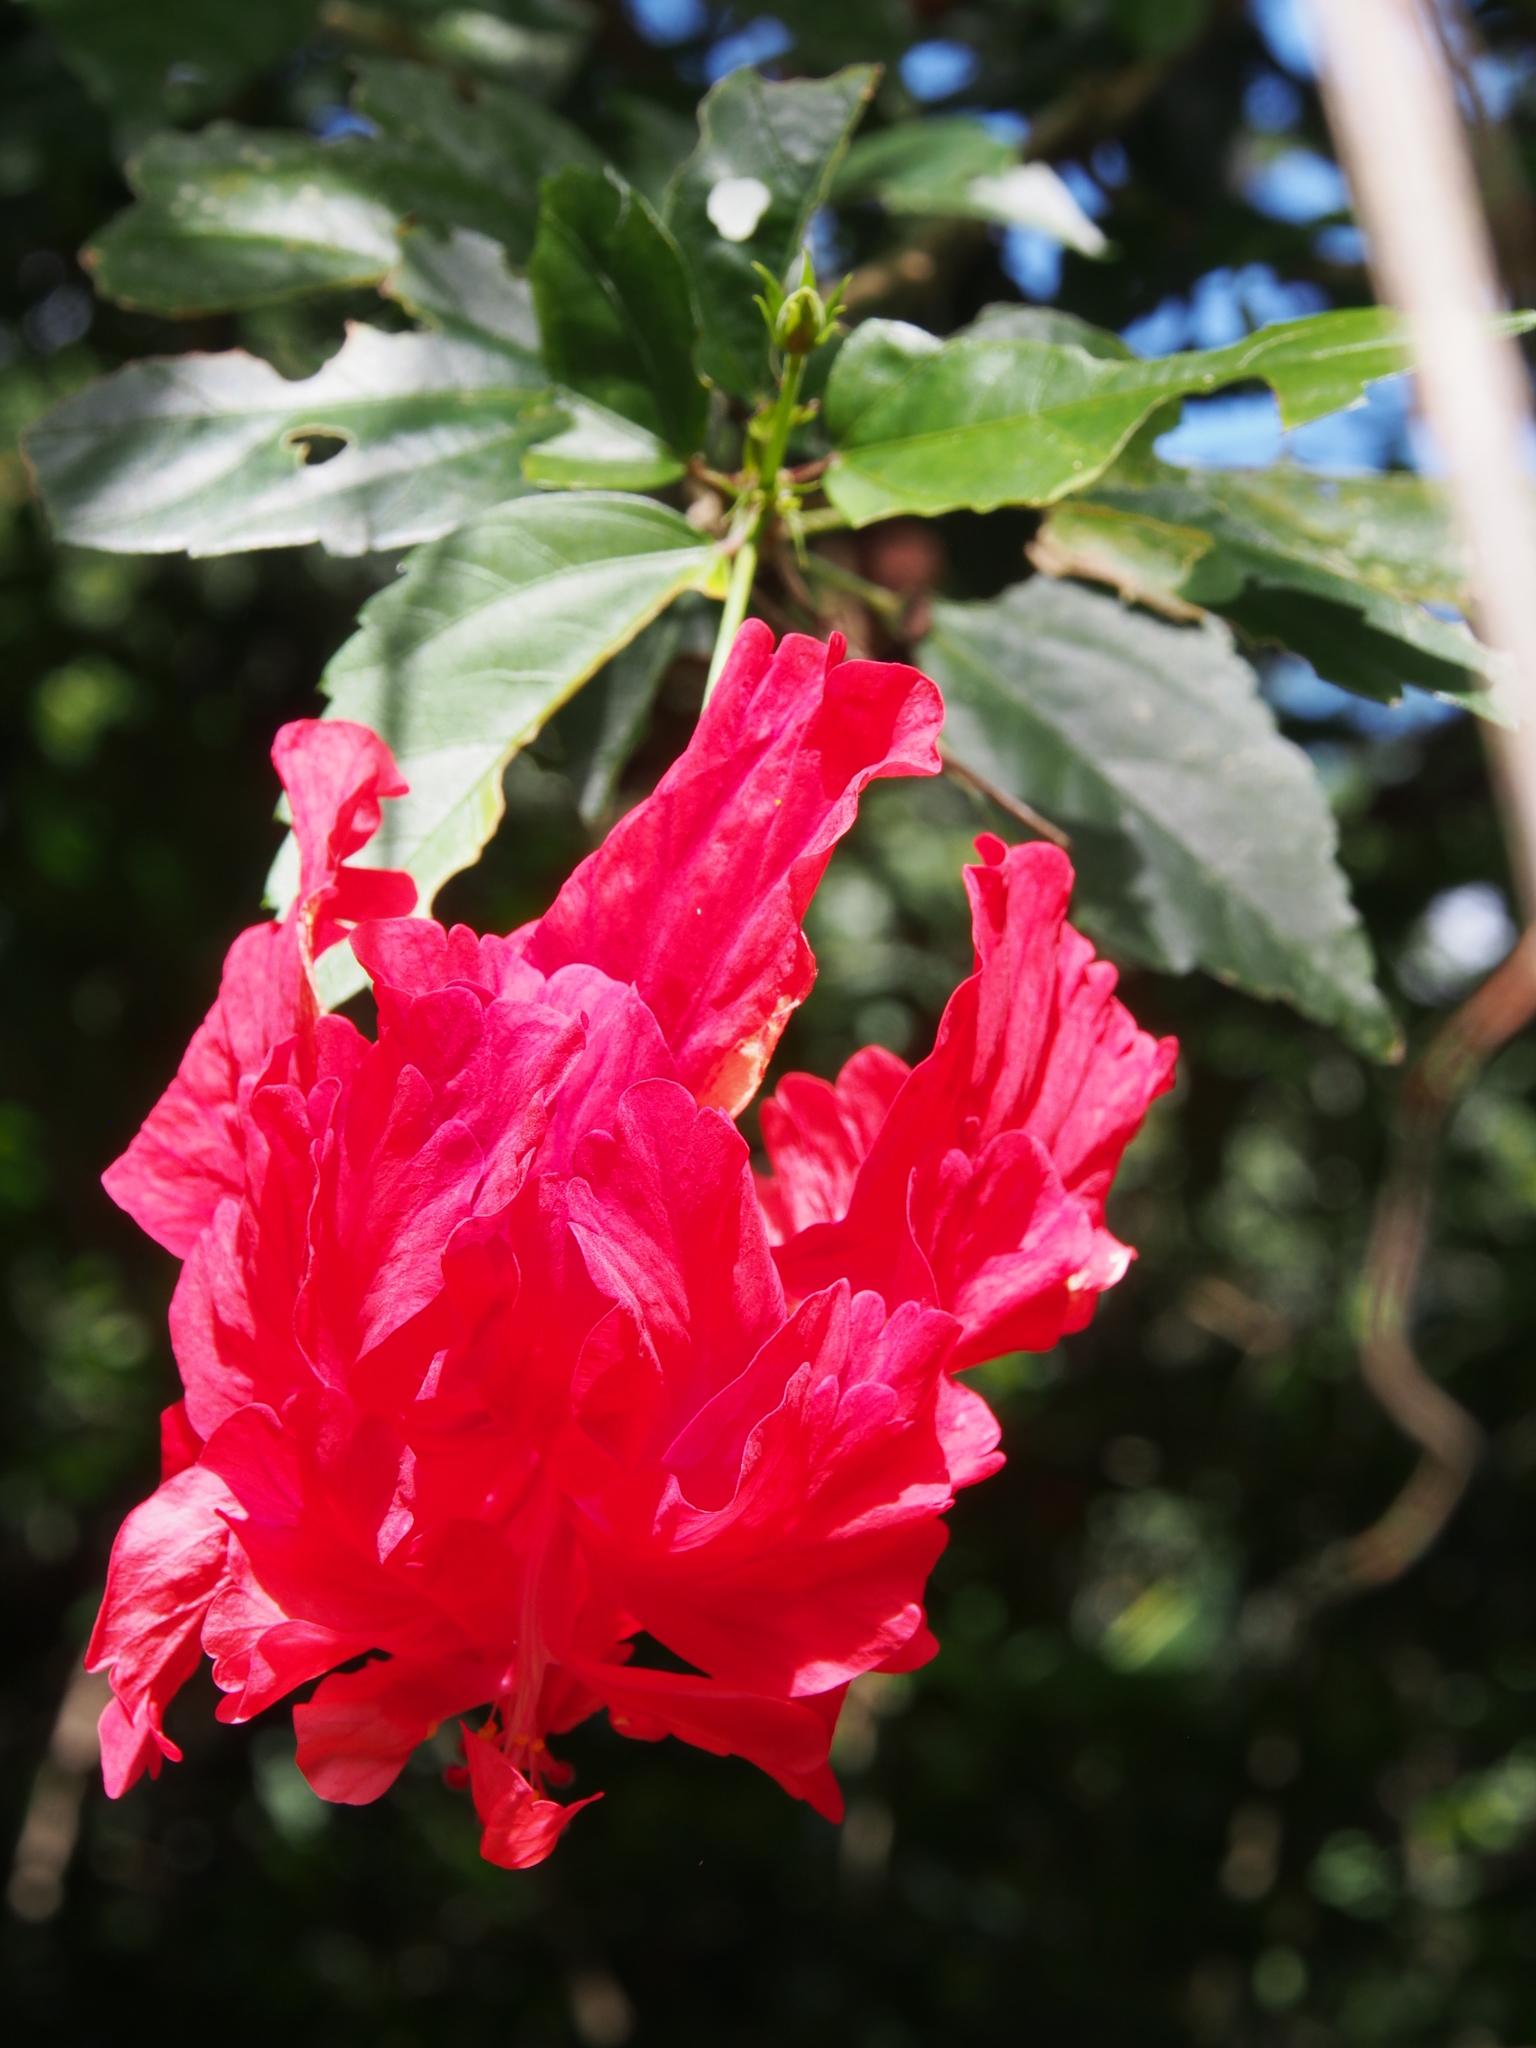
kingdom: Plantae
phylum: Tracheophyta
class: Magnoliopsida
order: Malvales
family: Malvaceae
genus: Hibiscus
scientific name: Hibiscus archeri
